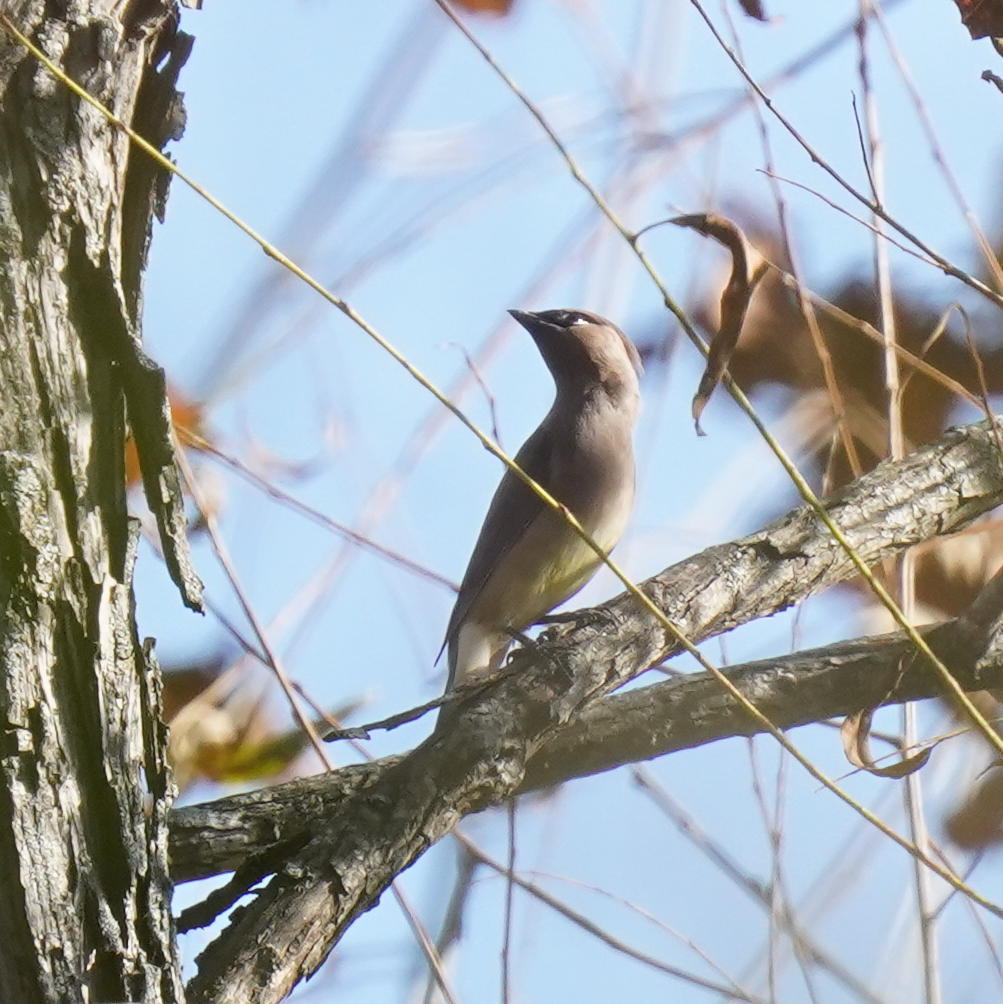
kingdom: Animalia
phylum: Chordata
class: Aves
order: Passeriformes
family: Bombycillidae
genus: Bombycilla
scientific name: Bombycilla cedrorum
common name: Cedar waxwing
